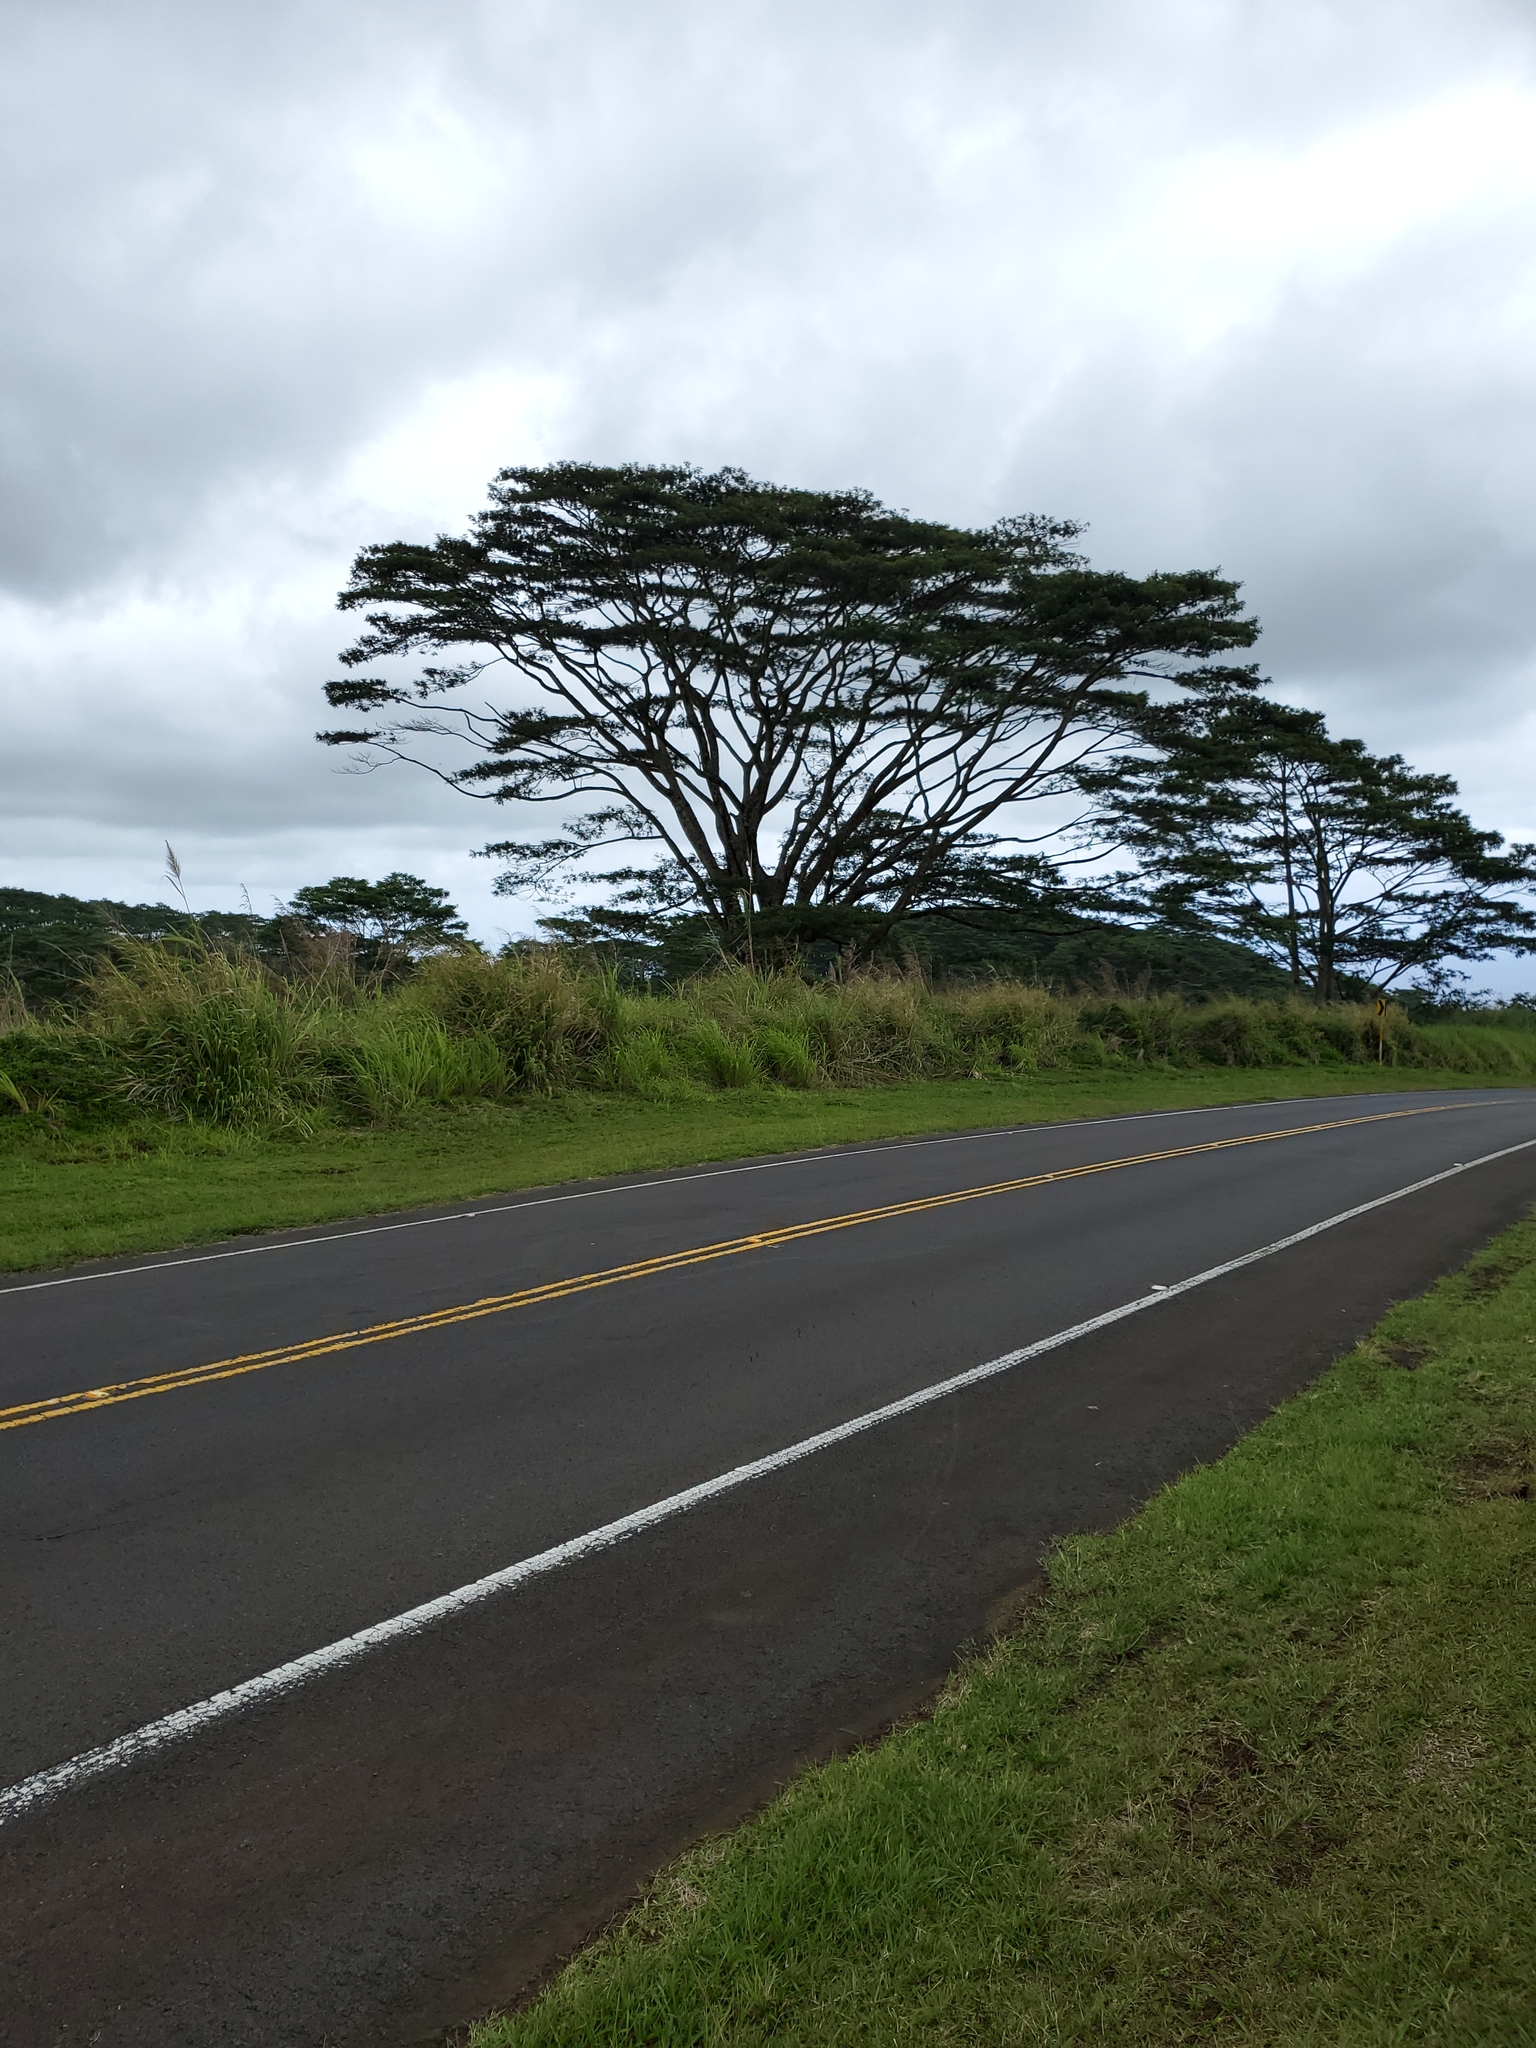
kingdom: Plantae
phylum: Tracheophyta
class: Magnoliopsida
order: Fabales
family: Fabaceae
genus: Falcataria
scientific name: Falcataria falcata
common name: Moluccan albizia
